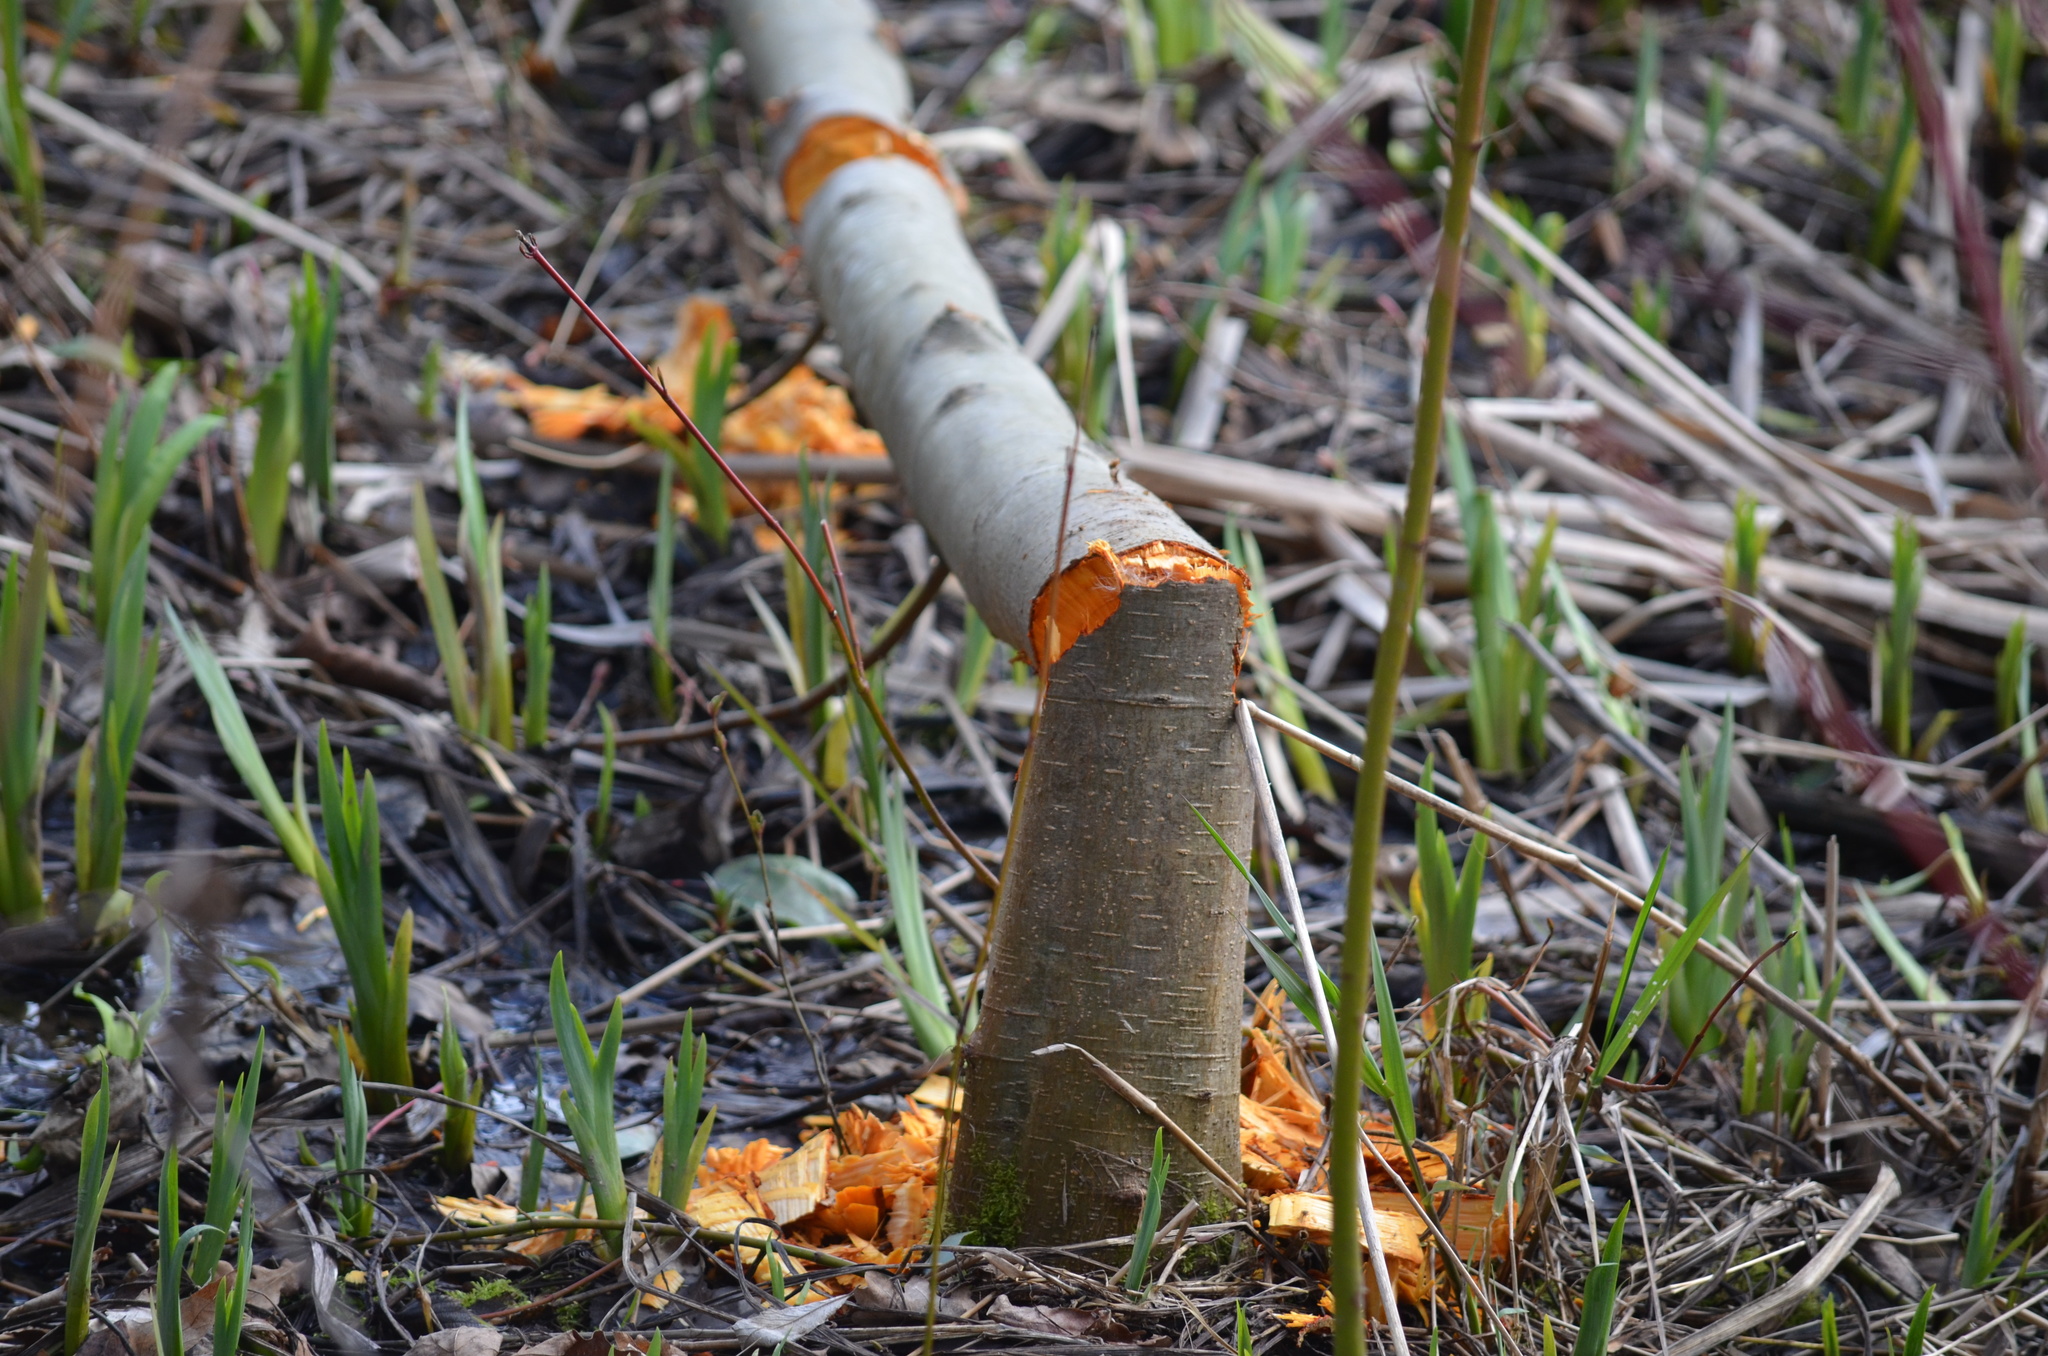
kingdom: Animalia
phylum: Chordata
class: Mammalia
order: Rodentia
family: Castoridae
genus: Castor
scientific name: Castor canadensis
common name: American beaver
